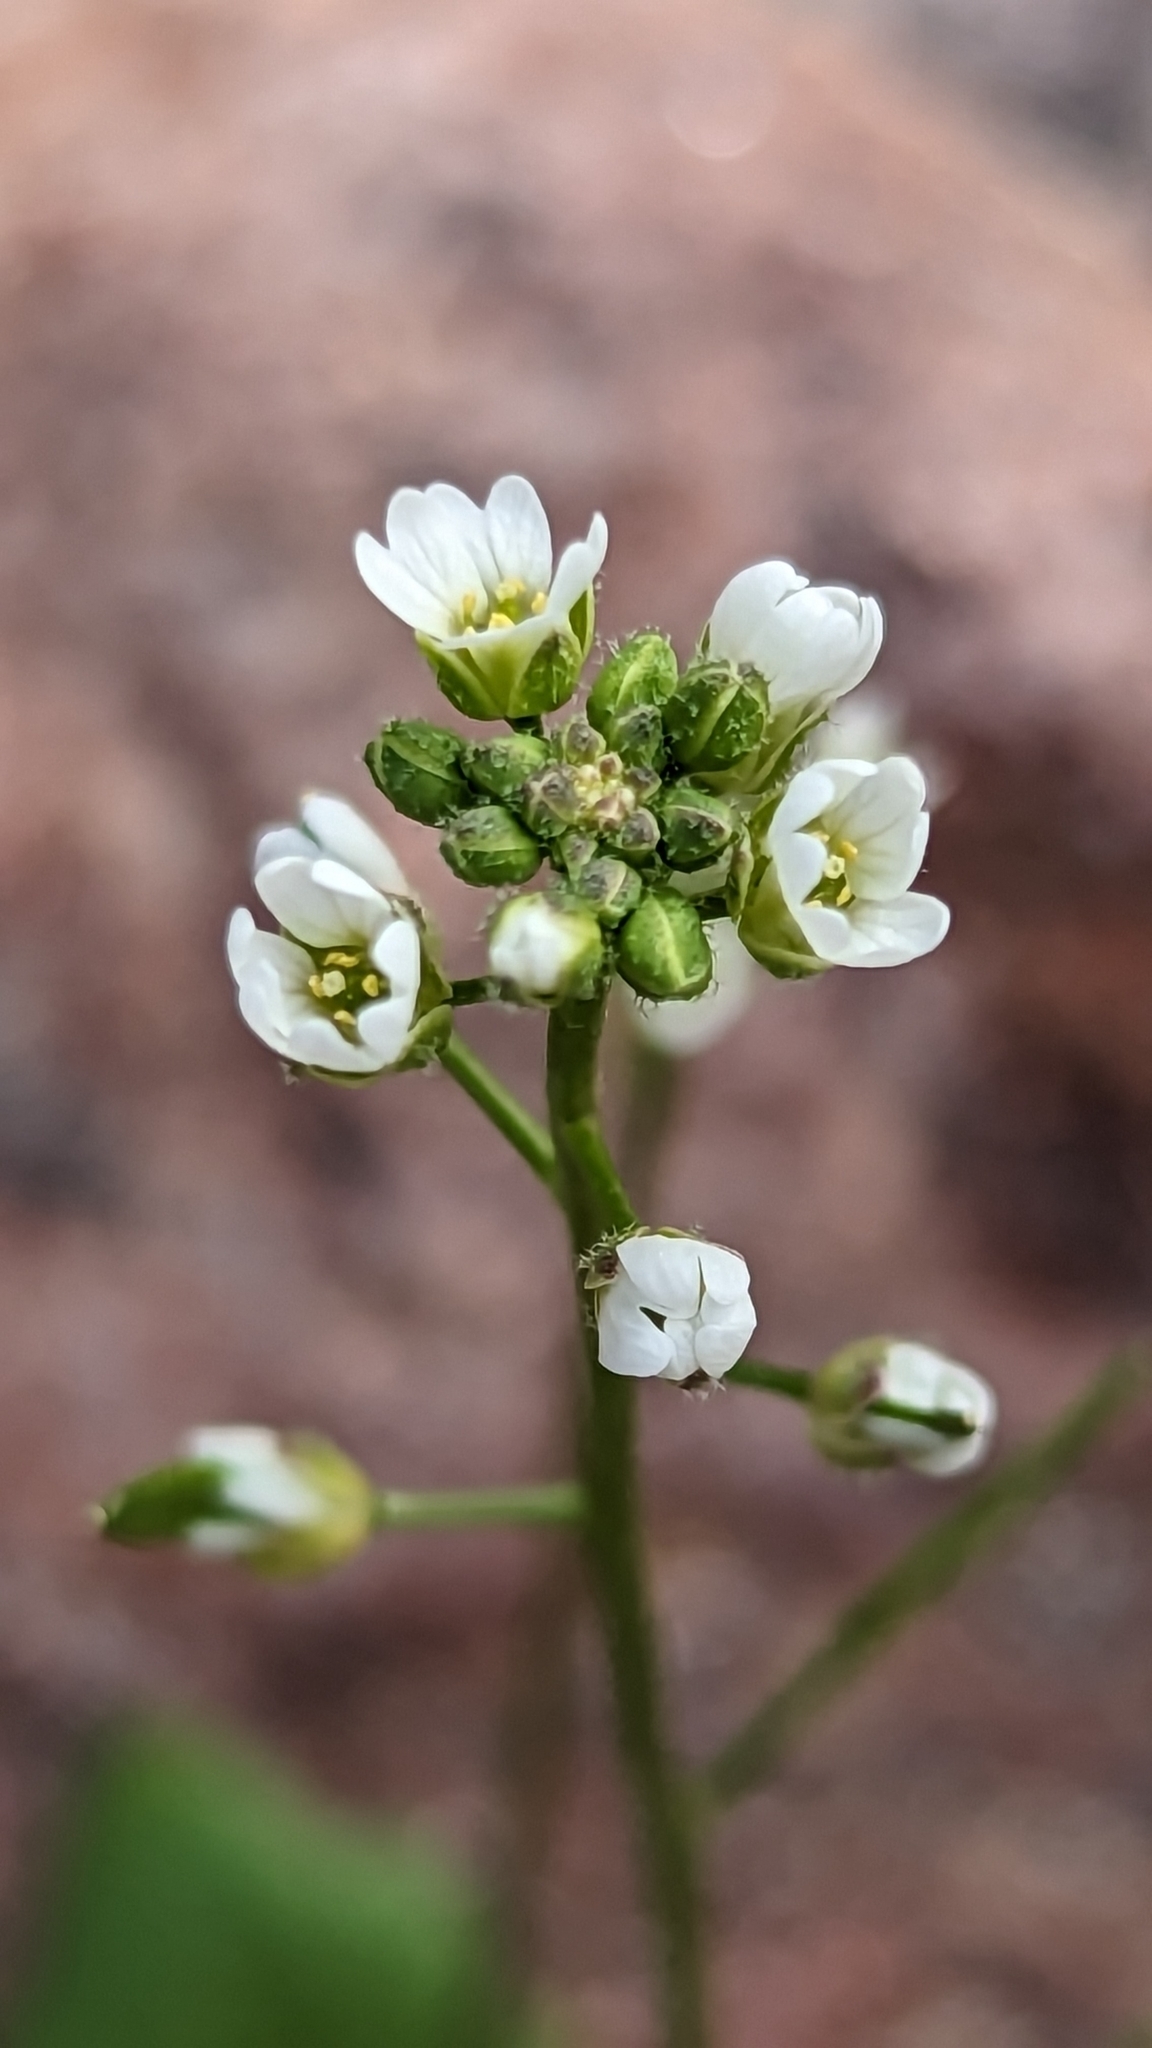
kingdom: Plantae
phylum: Tracheophyta
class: Magnoliopsida
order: Brassicales
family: Brassicaceae
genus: Tomostima
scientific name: Tomostima cuneifolia
